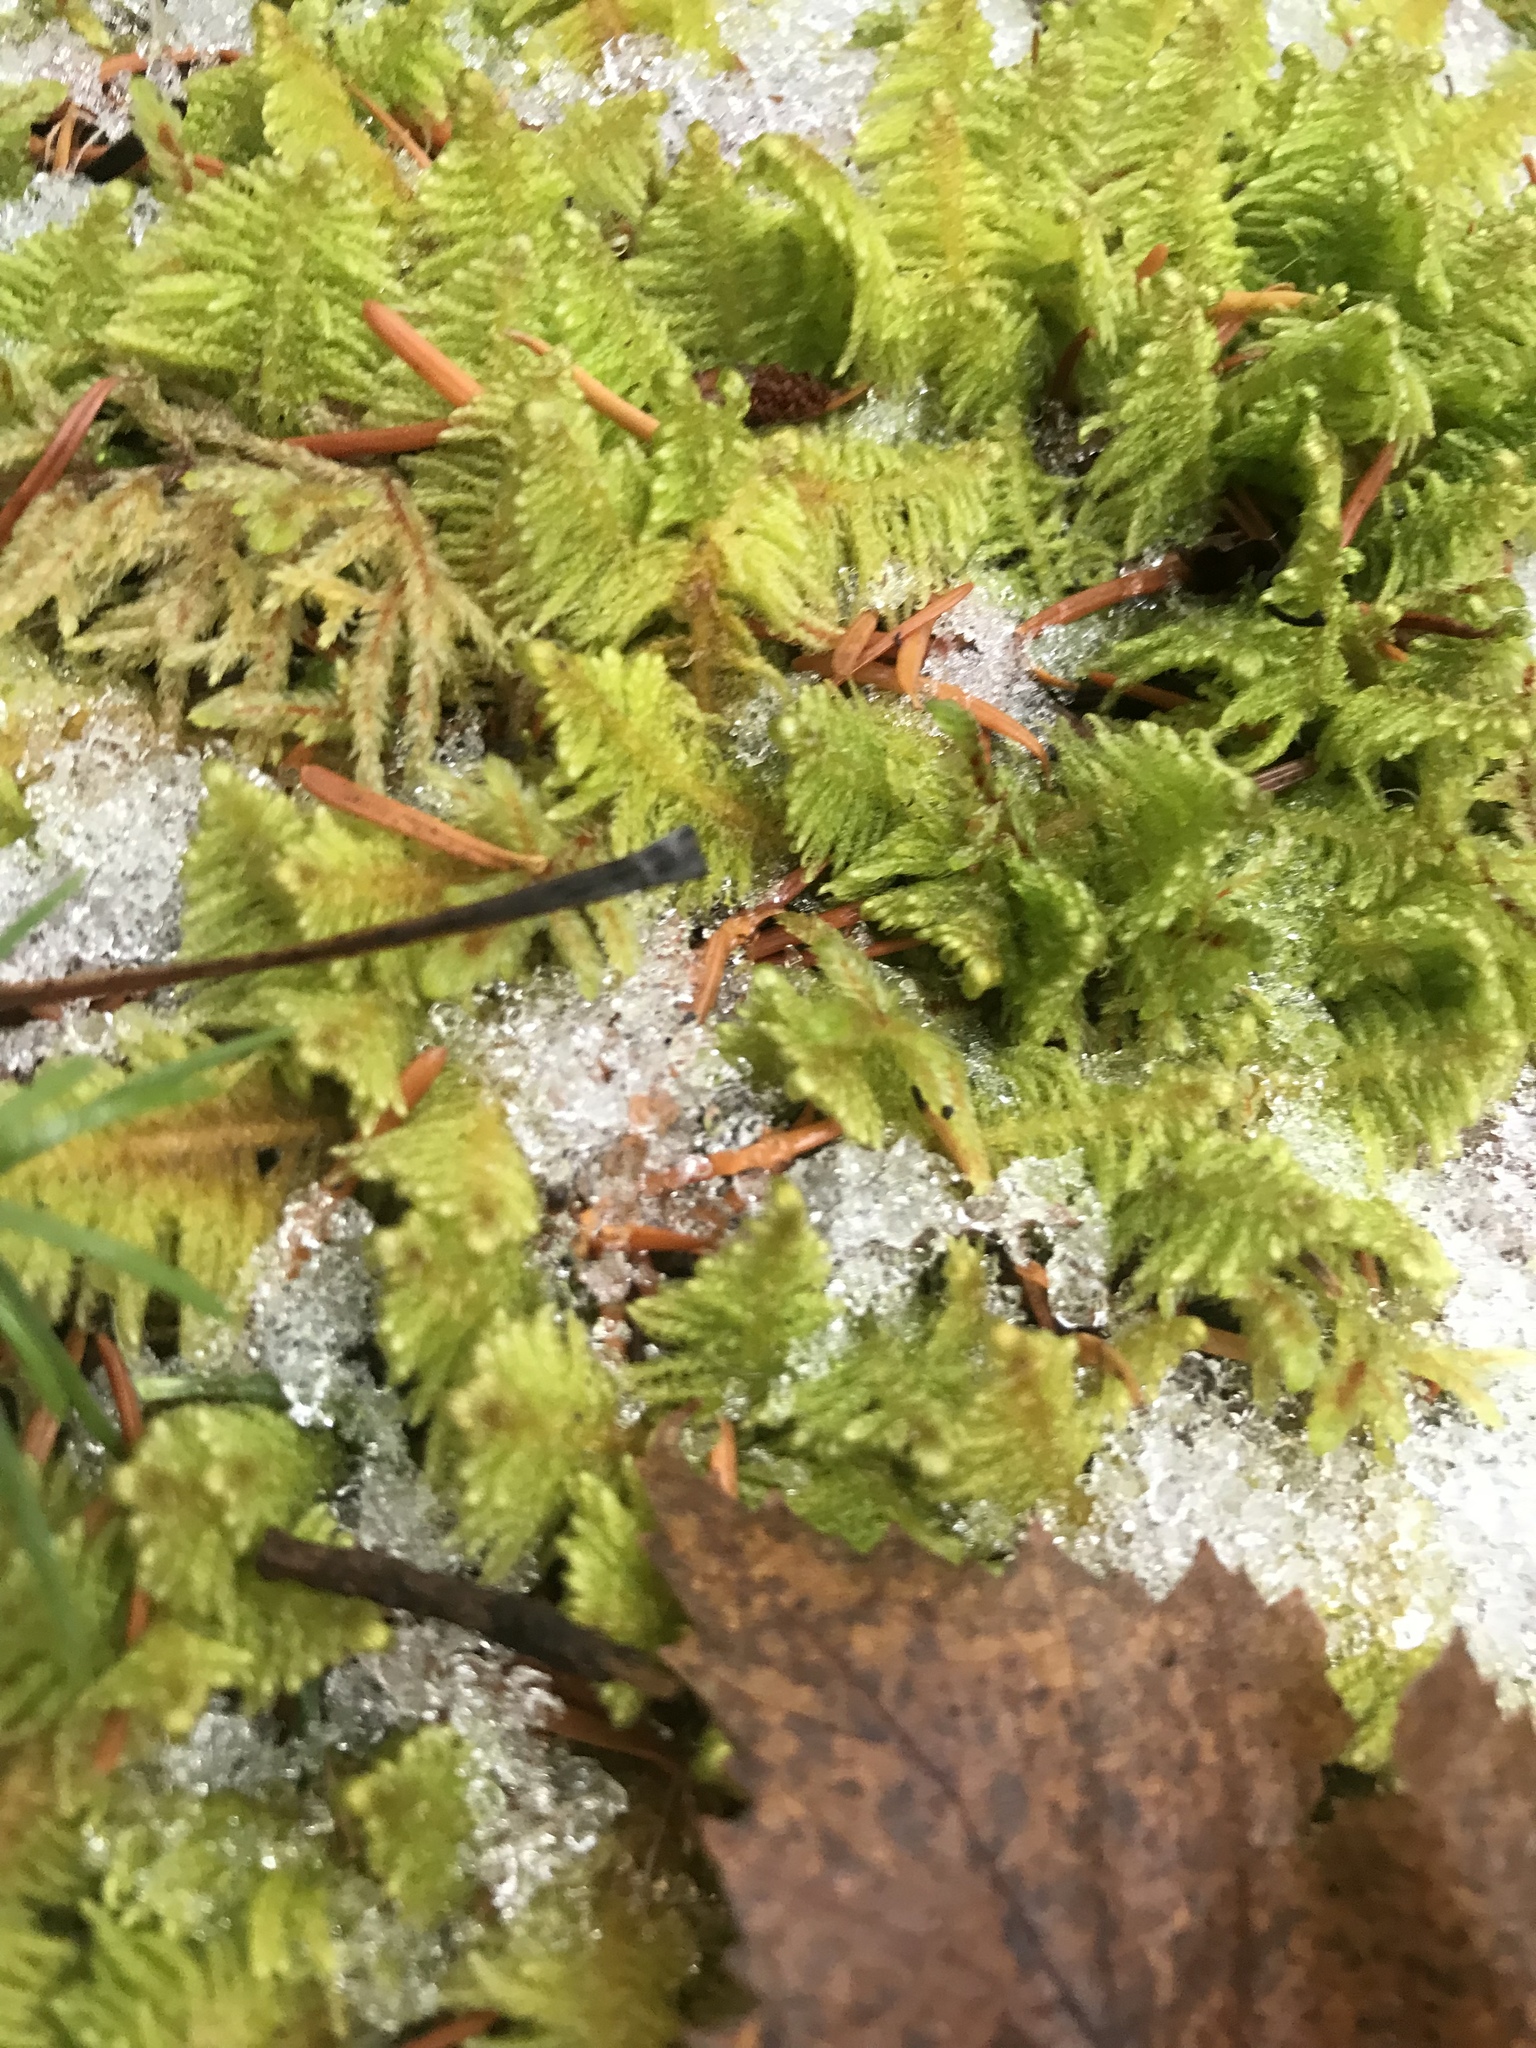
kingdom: Plantae
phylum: Bryophyta
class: Bryopsida
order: Hypnales
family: Pylaisiaceae
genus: Ptilium
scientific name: Ptilium crista-castrensis
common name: Knight's plume moss
